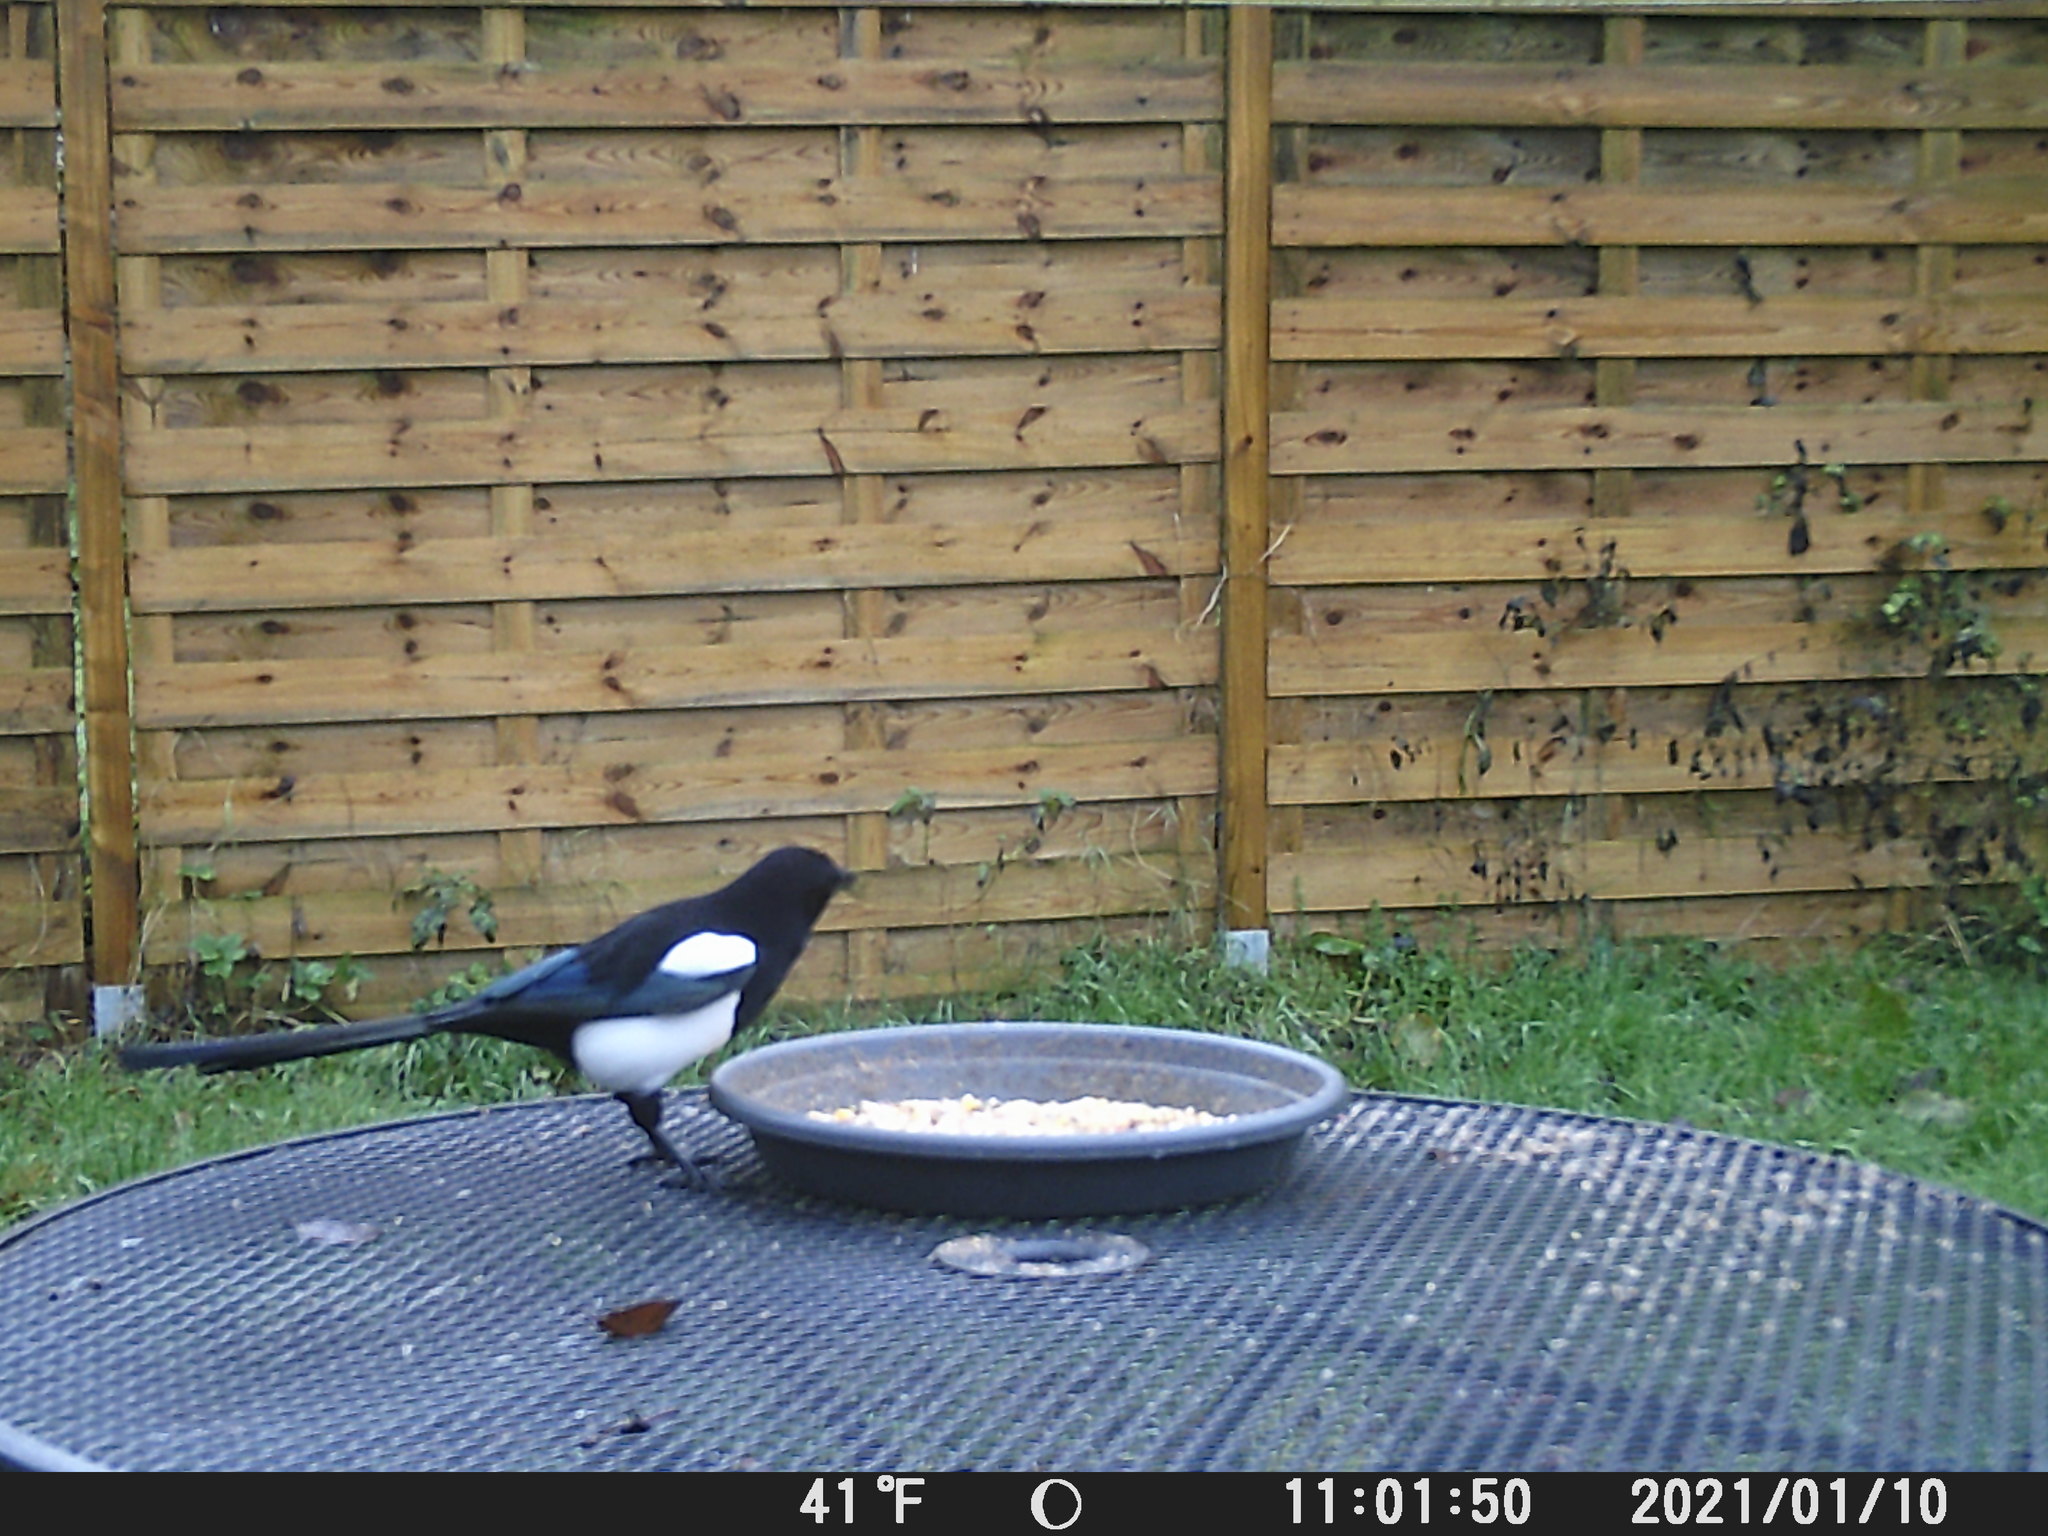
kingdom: Animalia
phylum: Chordata
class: Aves
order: Passeriformes
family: Corvidae
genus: Pica
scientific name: Pica pica
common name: Eurasian magpie
